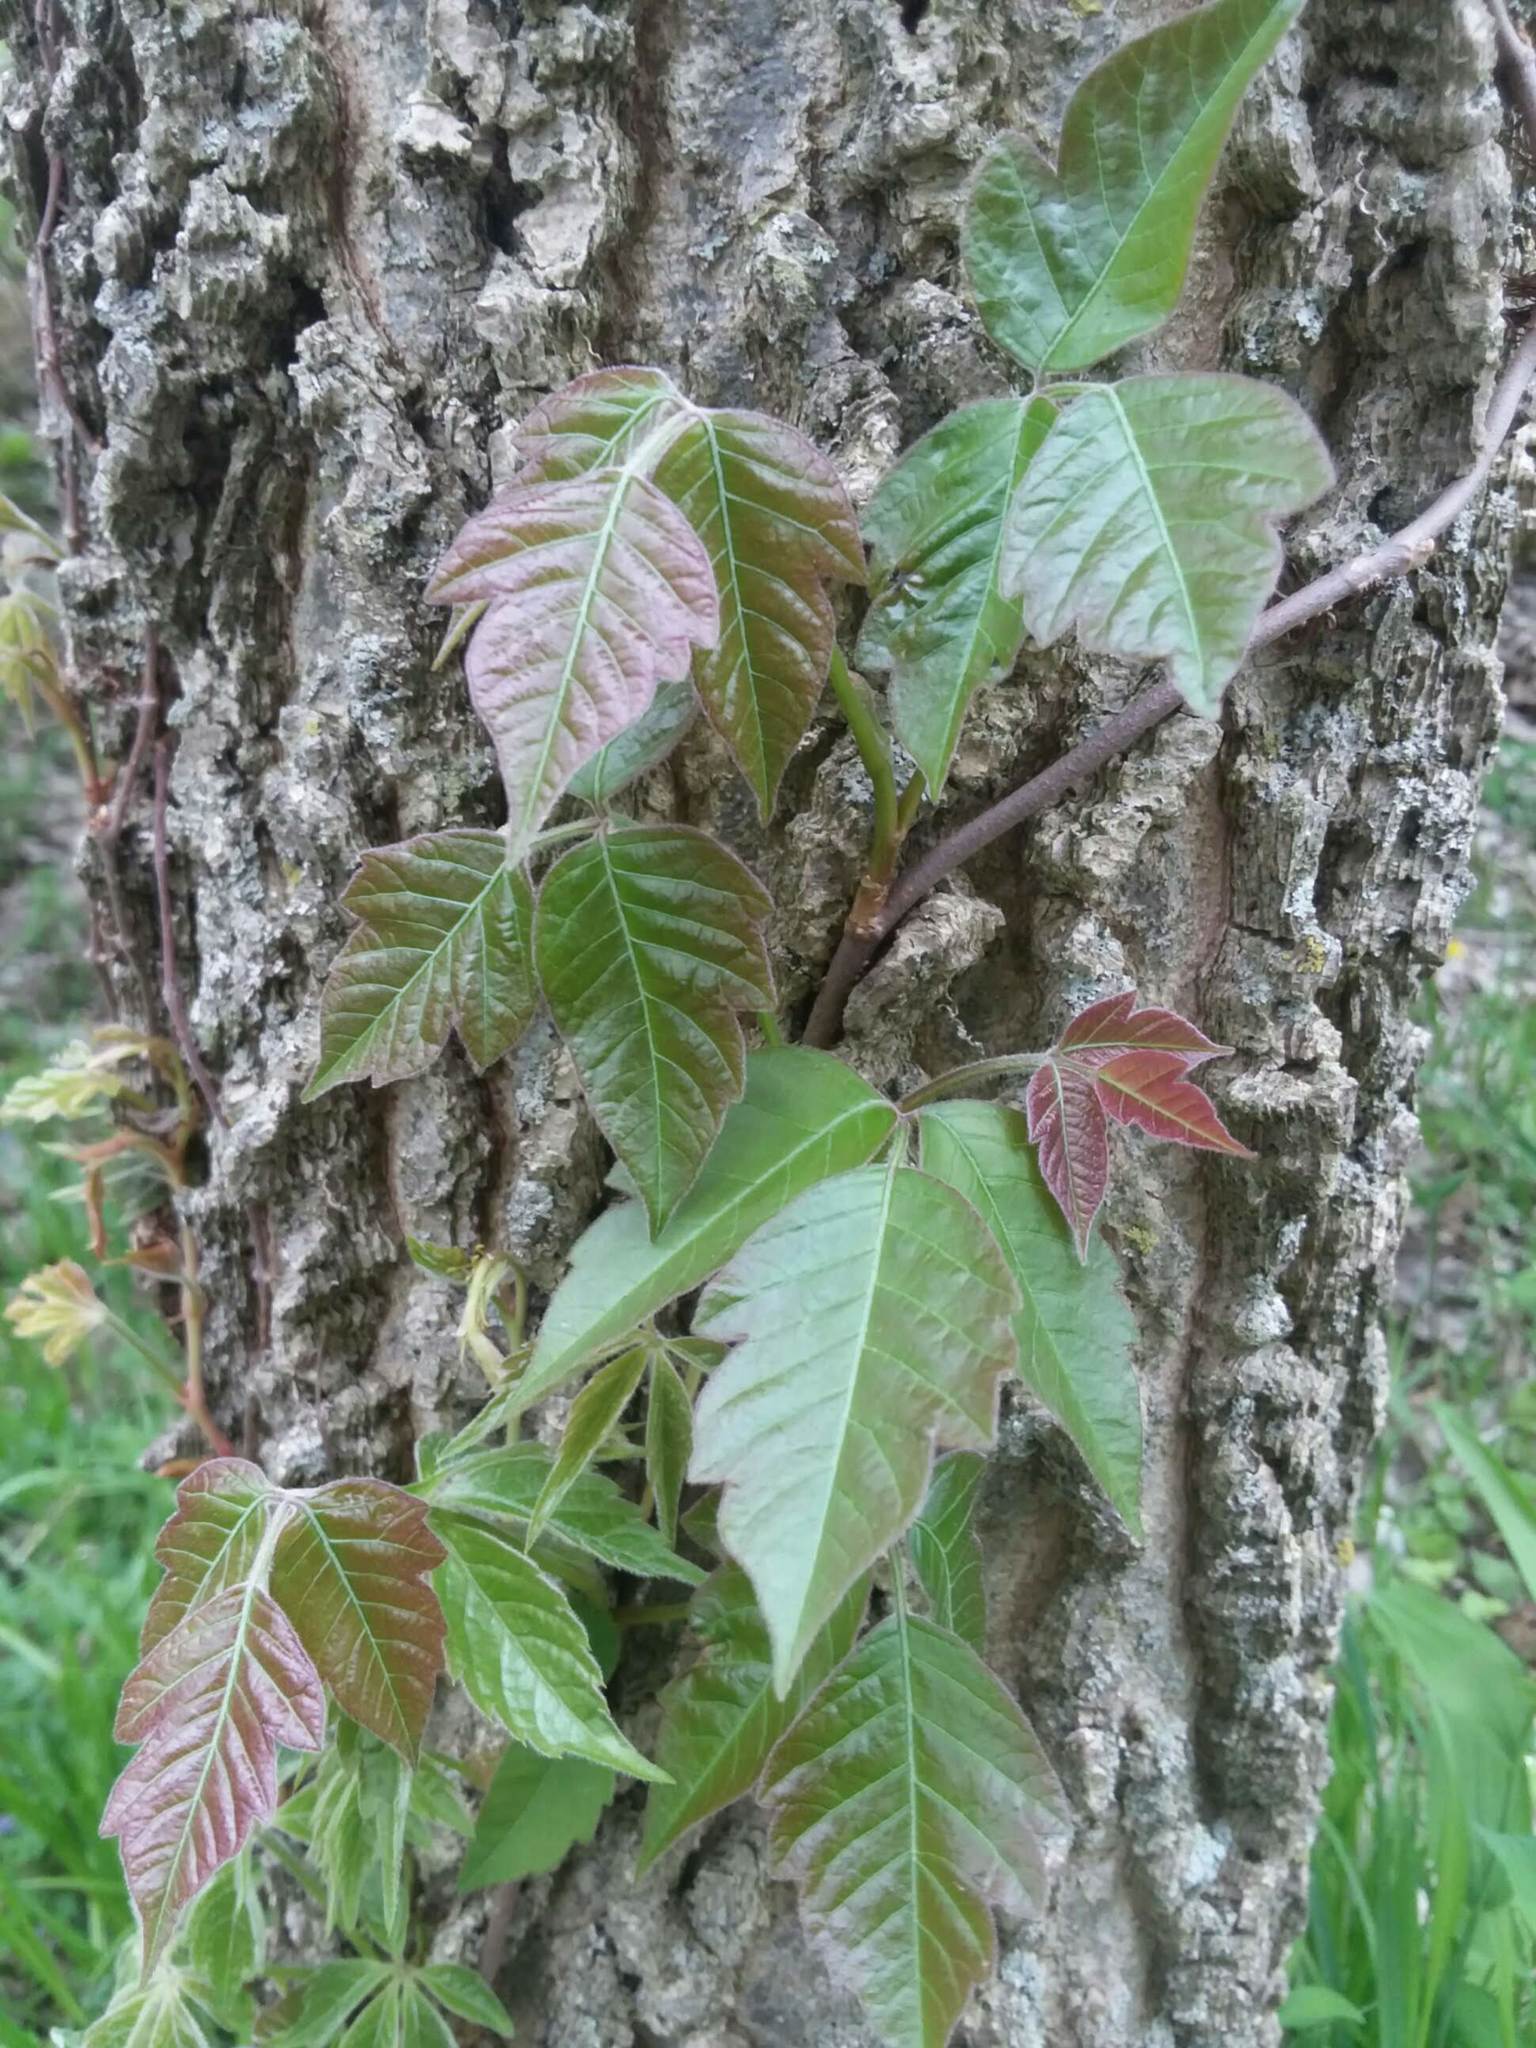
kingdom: Plantae
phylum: Tracheophyta
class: Magnoliopsida
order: Sapindales
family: Anacardiaceae
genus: Toxicodendron
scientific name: Toxicodendron radicans
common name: Poison ivy
